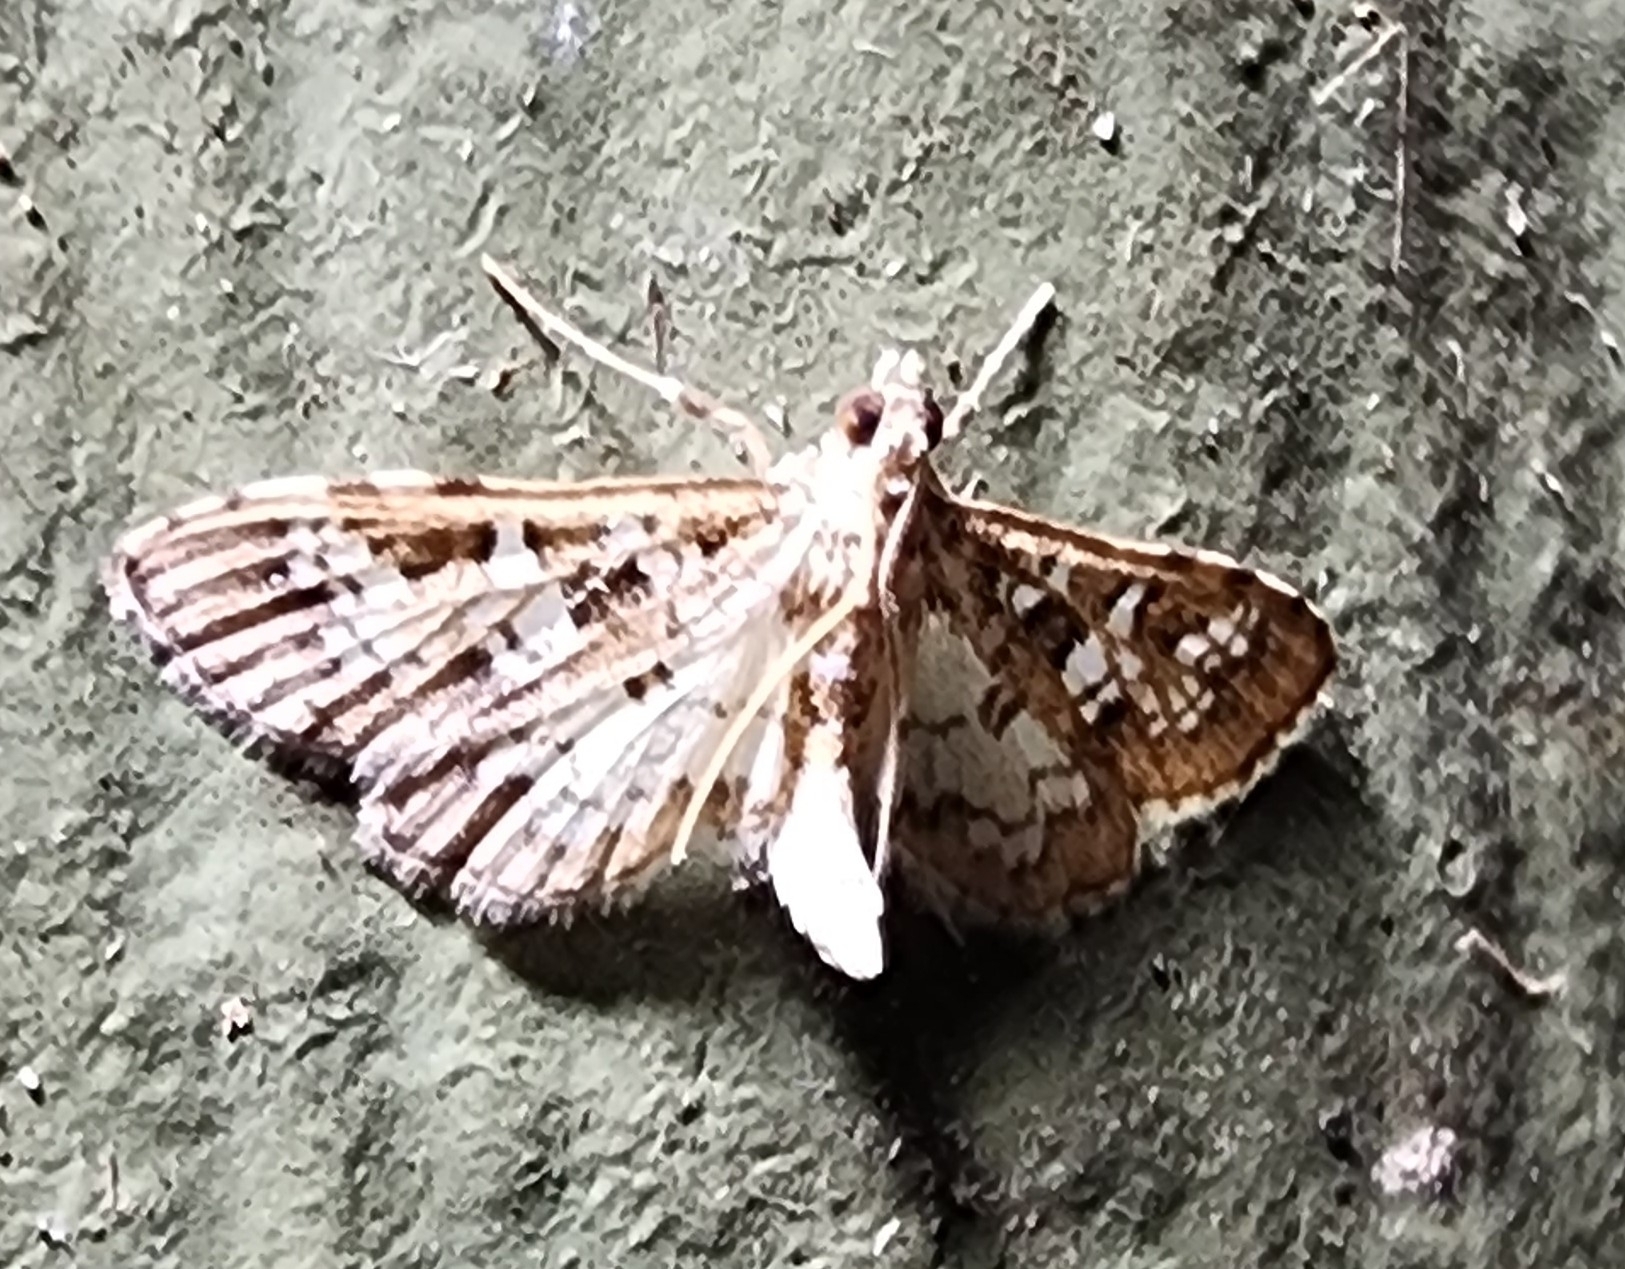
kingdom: Animalia
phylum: Arthropoda
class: Insecta
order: Lepidoptera
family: Crambidae
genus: Samea
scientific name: Samea multiplicalis
